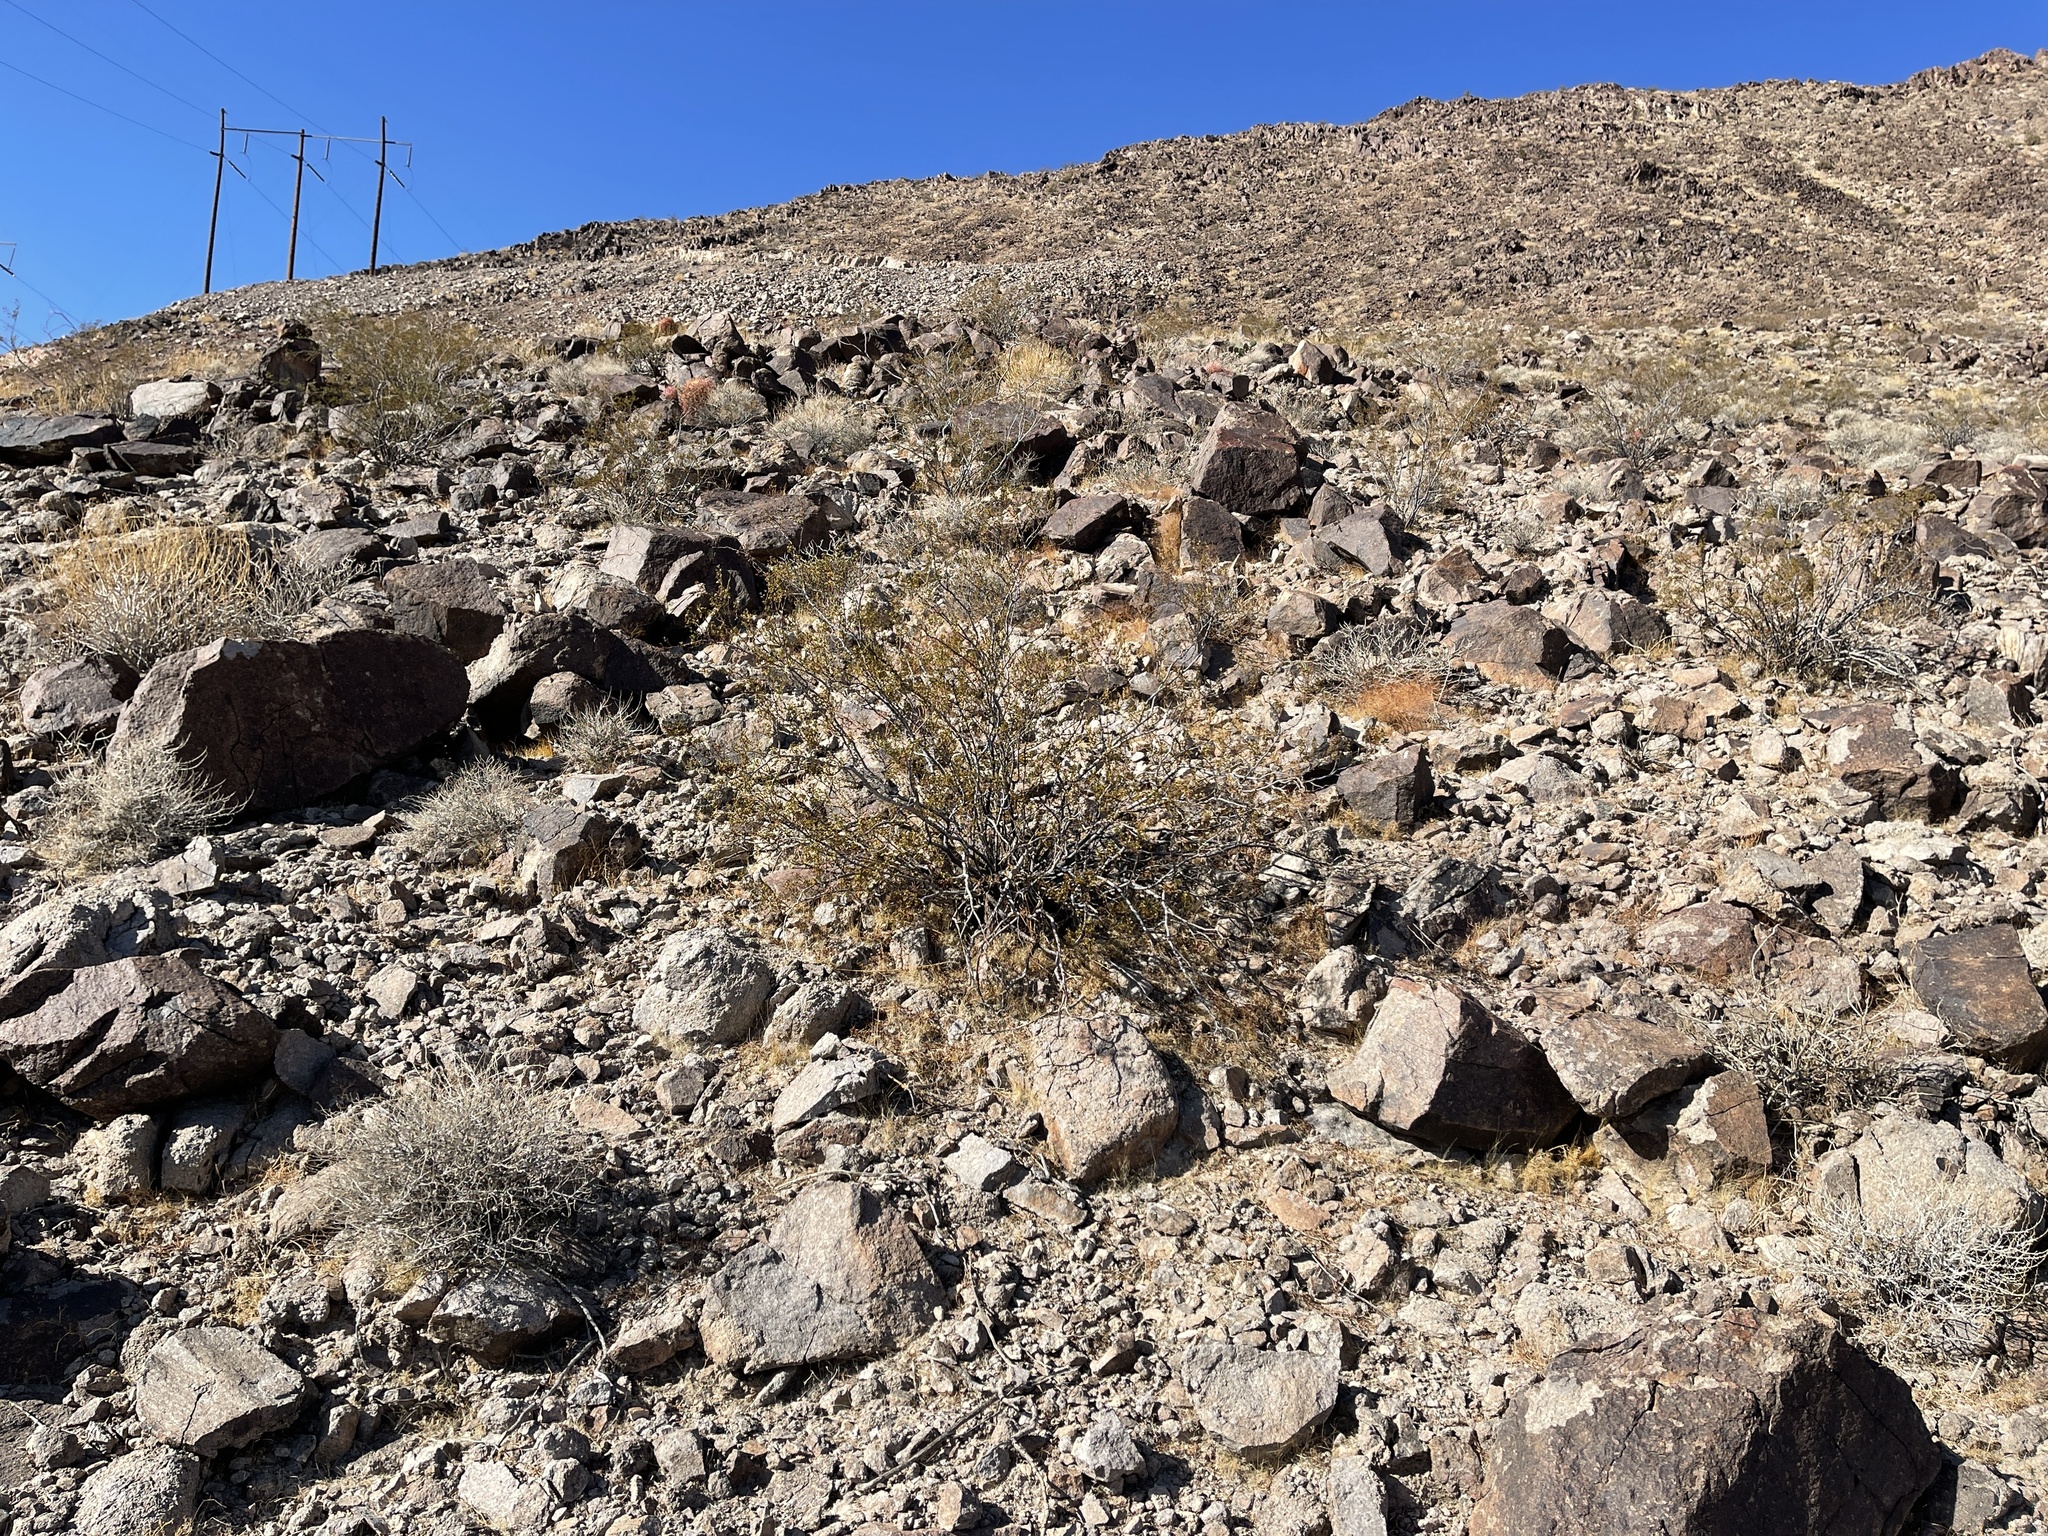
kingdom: Plantae
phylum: Tracheophyta
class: Magnoliopsida
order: Zygophyllales
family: Zygophyllaceae
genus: Larrea
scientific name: Larrea tridentata
